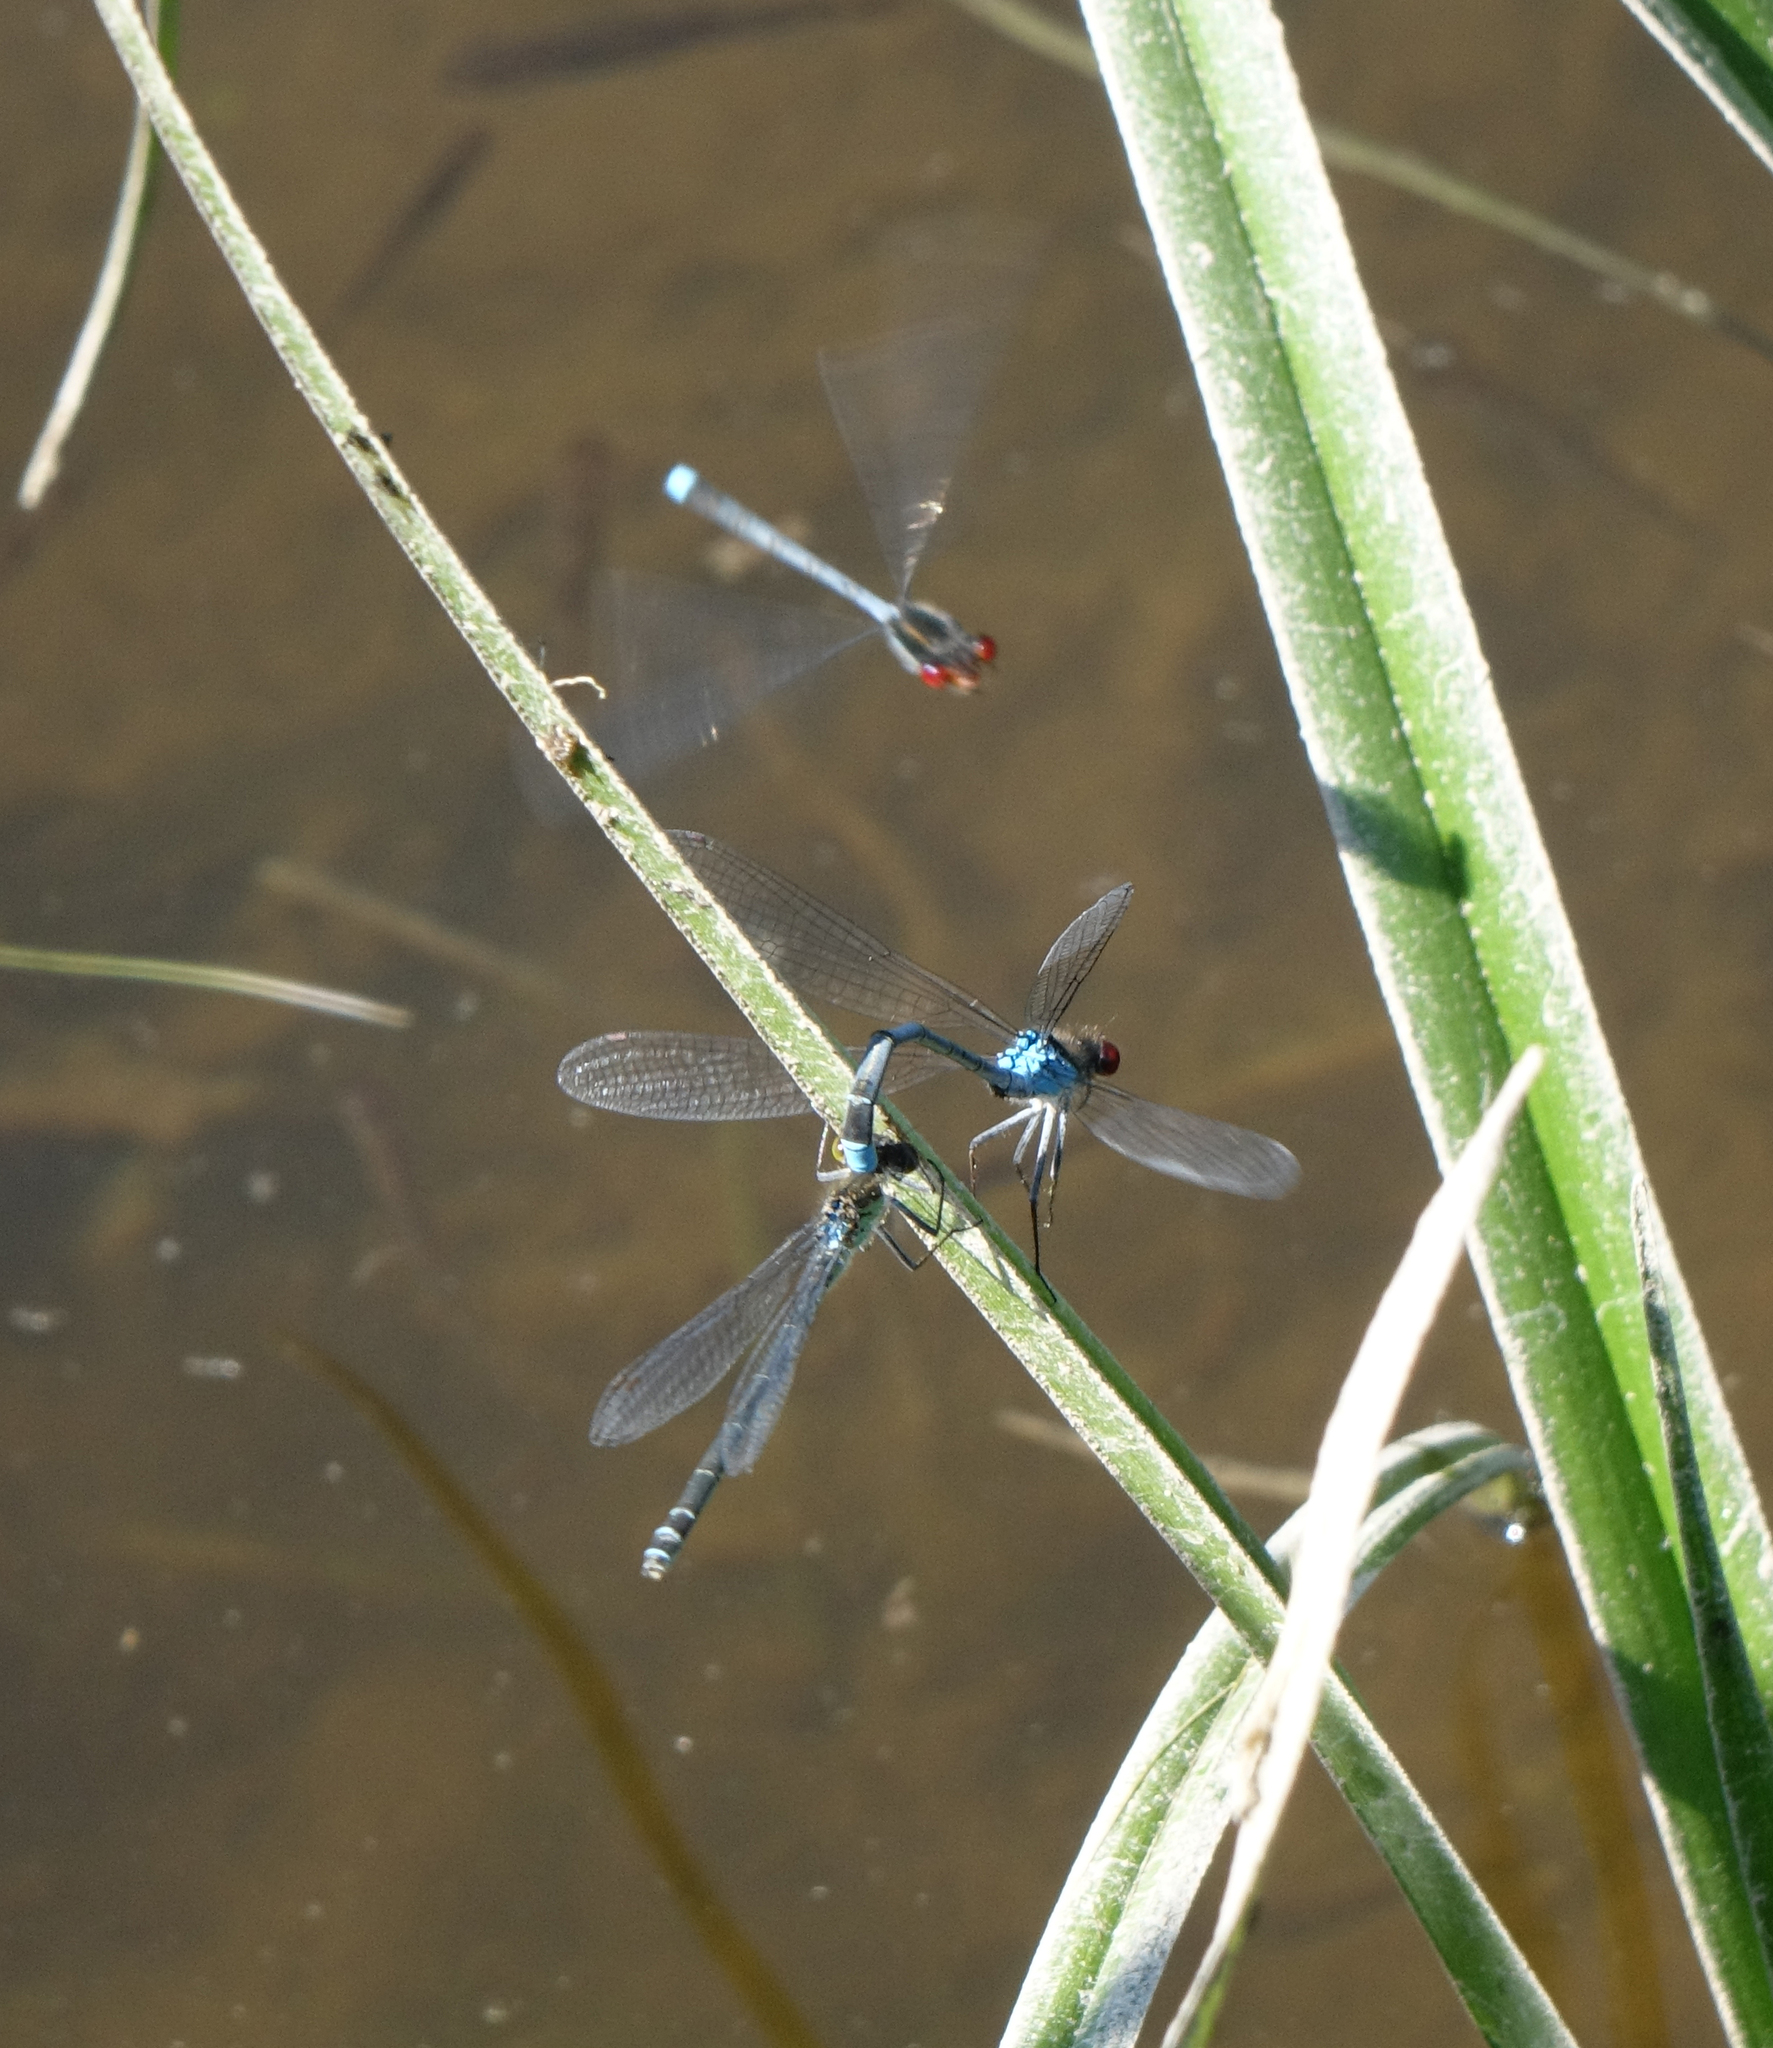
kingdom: Animalia
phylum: Arthropoda
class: Insecta
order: Odonata
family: Coenagrionidae
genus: Erythromma
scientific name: Erythromma najas
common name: Red-eyed damselfly
